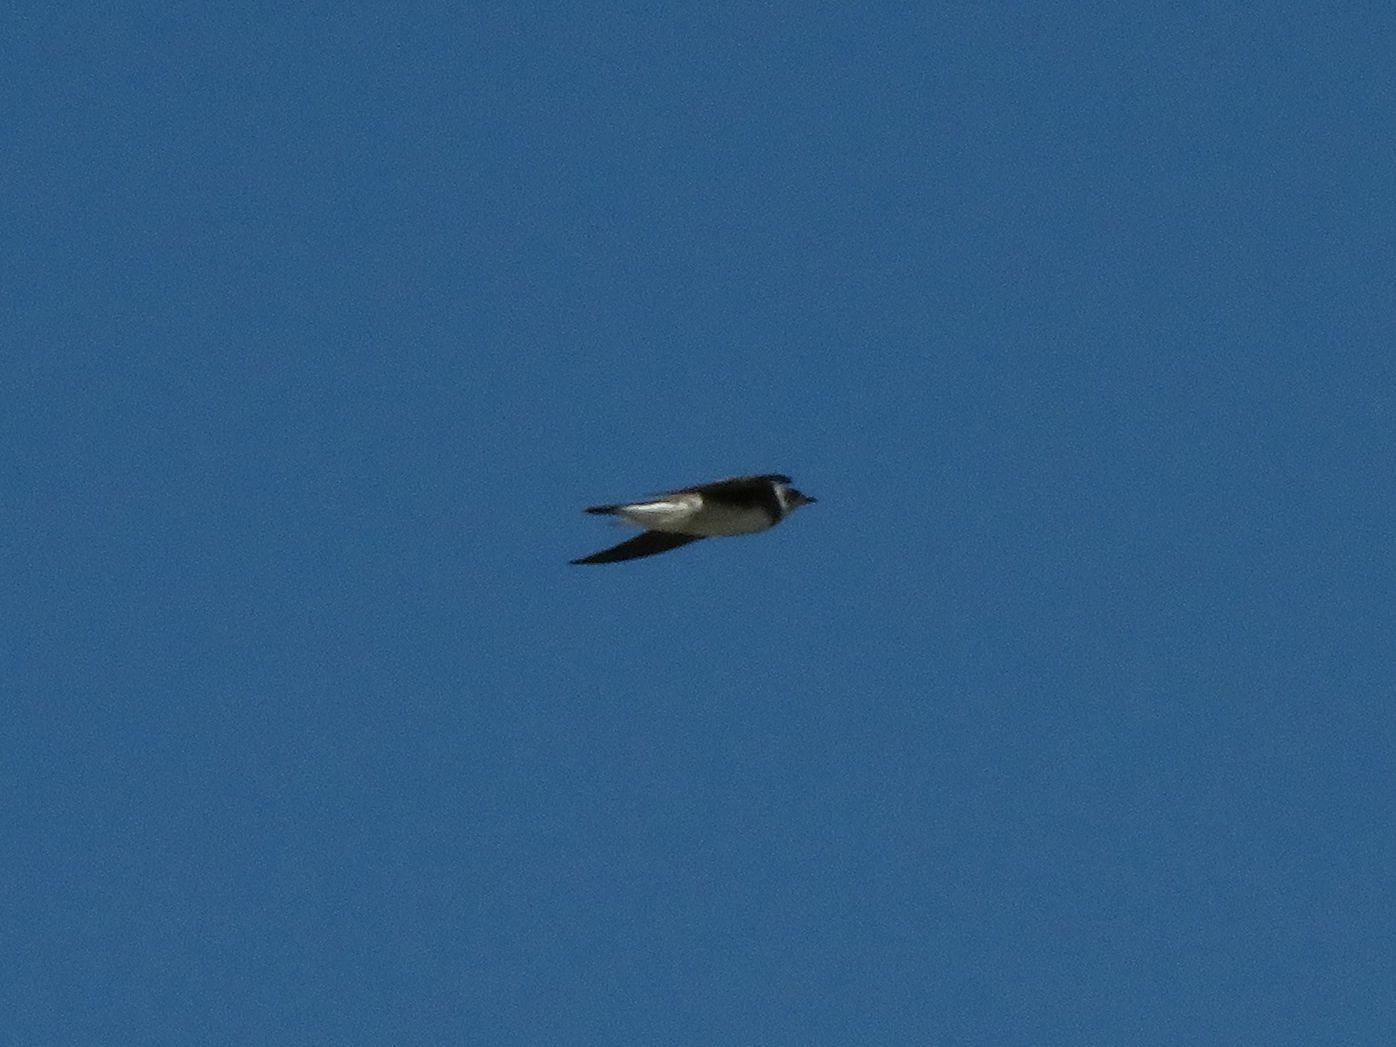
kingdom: Animalia
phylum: Chordata
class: Aves
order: Passeriformes
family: Hirundinidae
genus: Progne
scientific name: Progne tapera
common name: Brown-chested martin
